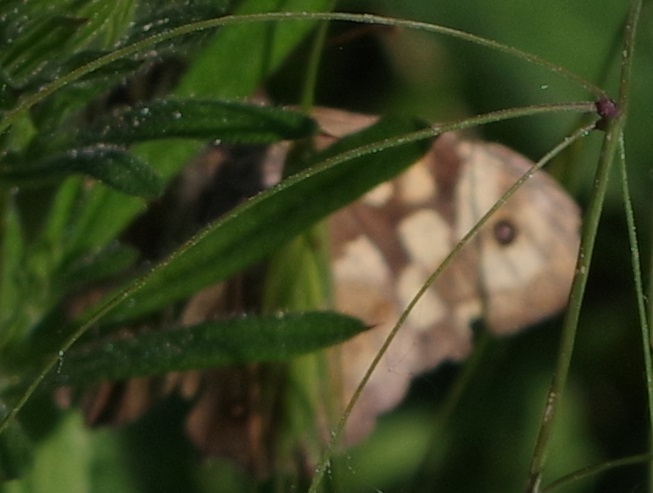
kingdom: Animalia
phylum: Arthropoda
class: Insecta
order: Lepidoptera
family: Nymphalidae
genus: Pararge
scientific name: Pararge aegeria
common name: Speckled wood
